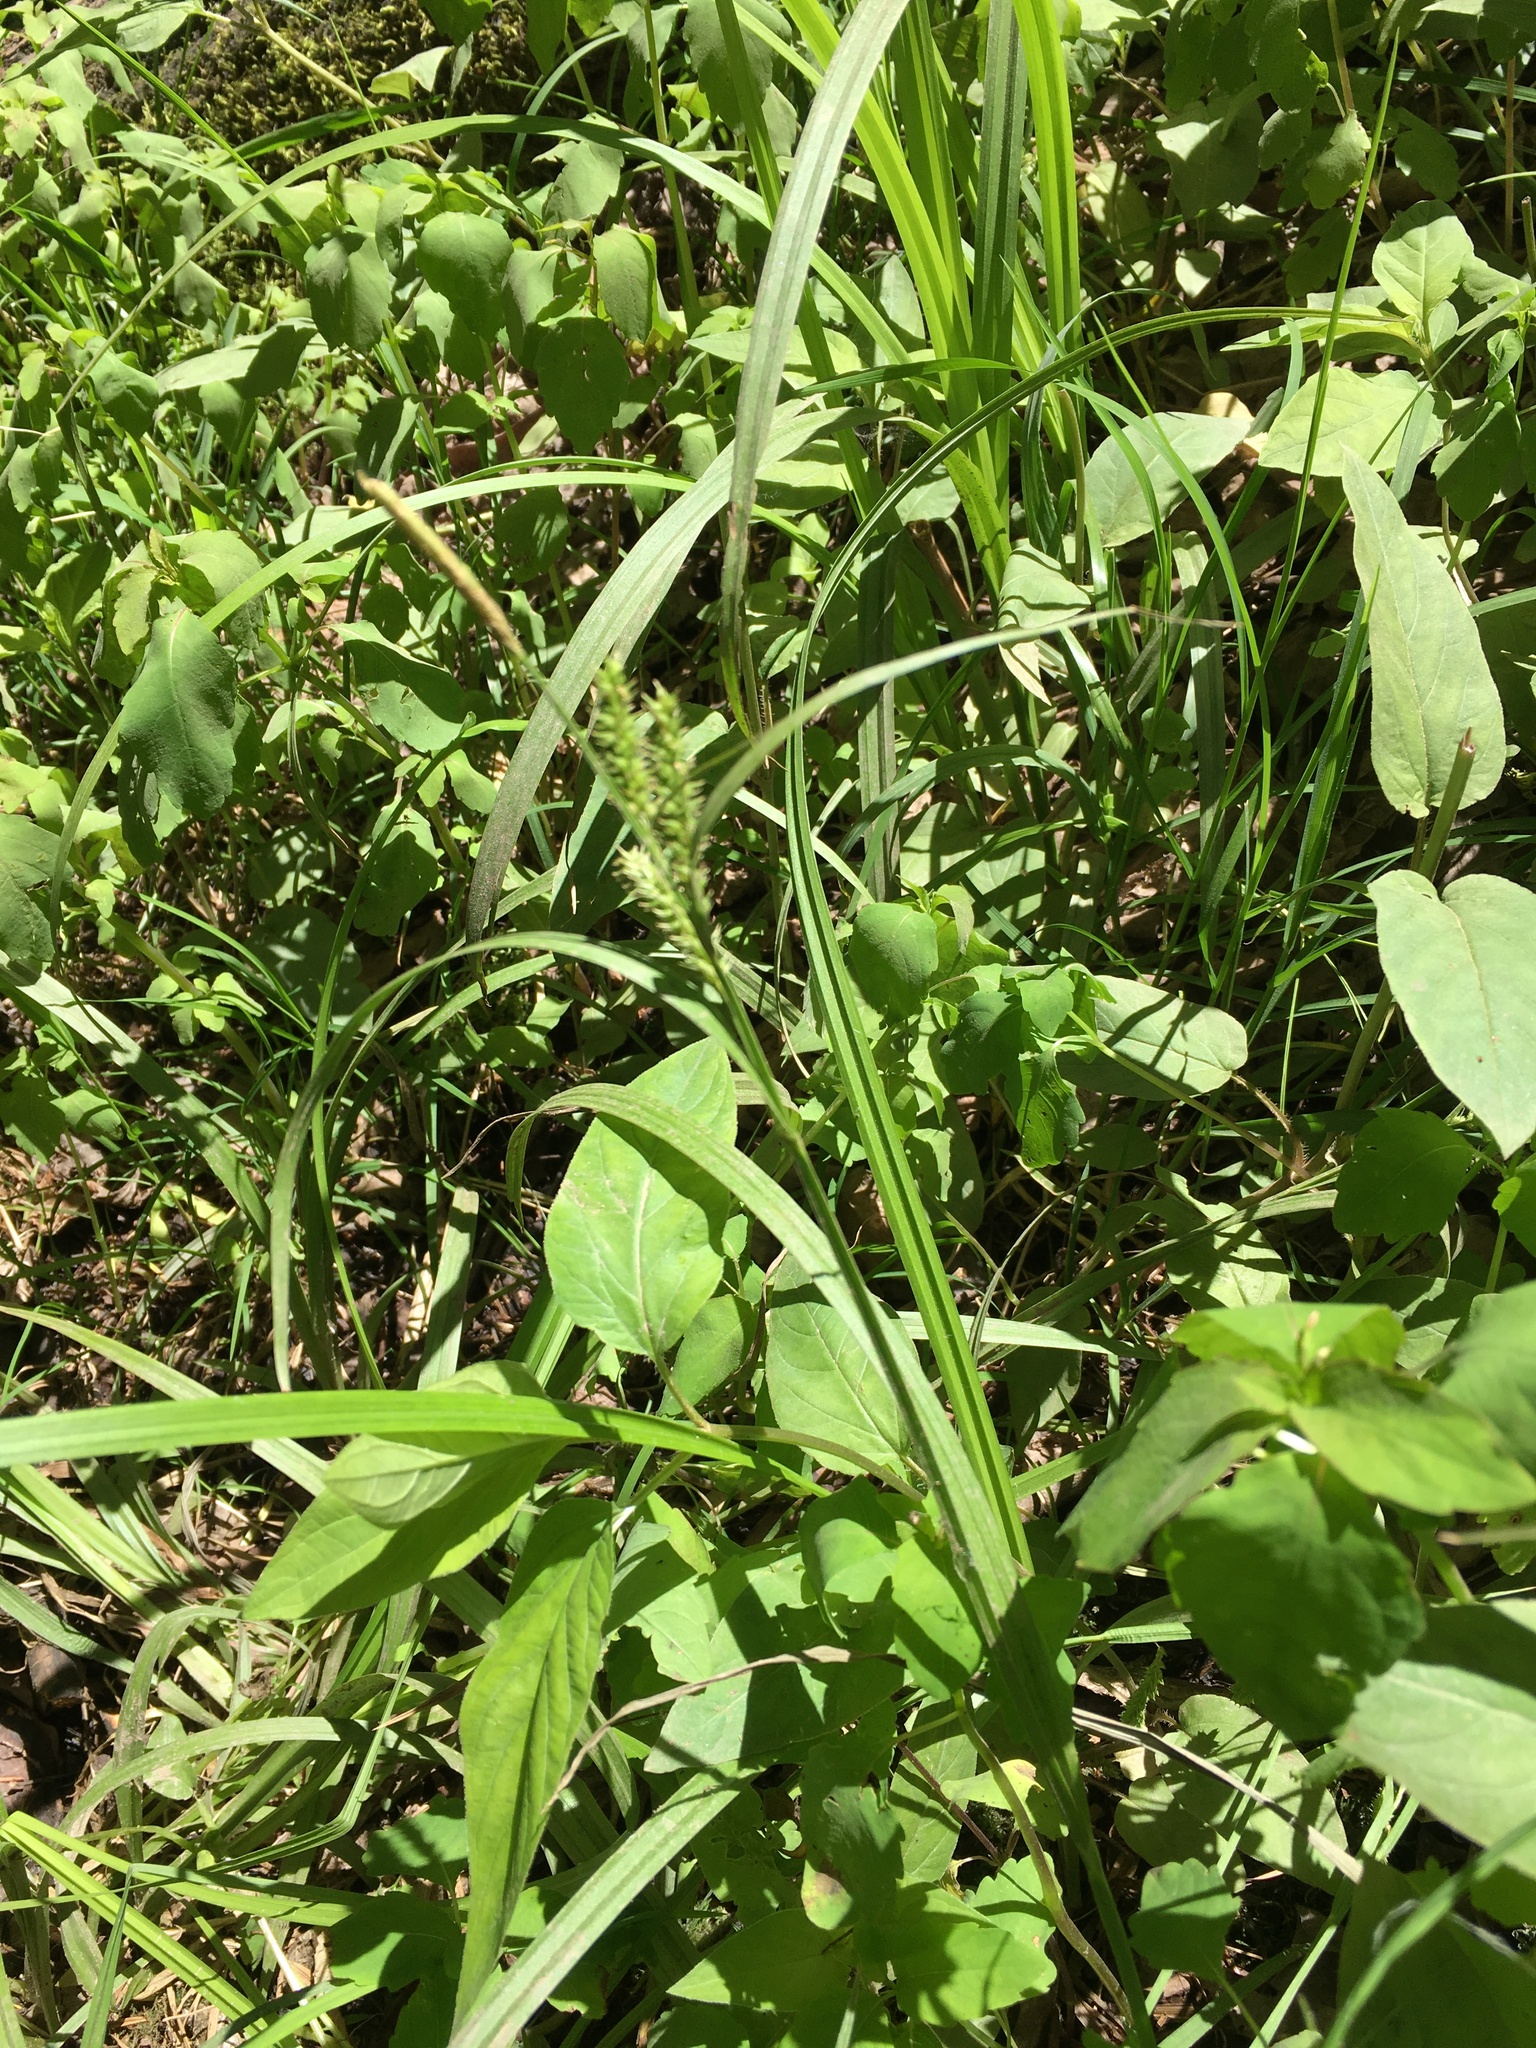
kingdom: Plantae
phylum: Tracheophyta
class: Liliopsida
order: Poales
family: Cyperaceae
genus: Carex
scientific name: Carex scabrata
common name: Eastern rough sedge
